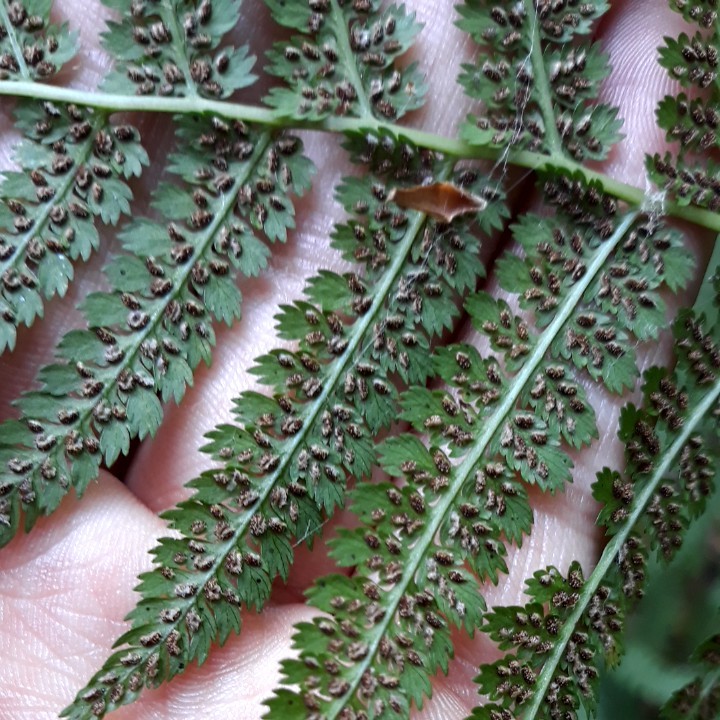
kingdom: Plantae
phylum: Tracheophyta
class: Polypodiopsida
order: Polypodiales
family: Athyriaceae
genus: Athyrium
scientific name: Athyrium filix-femina
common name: Lady fern
